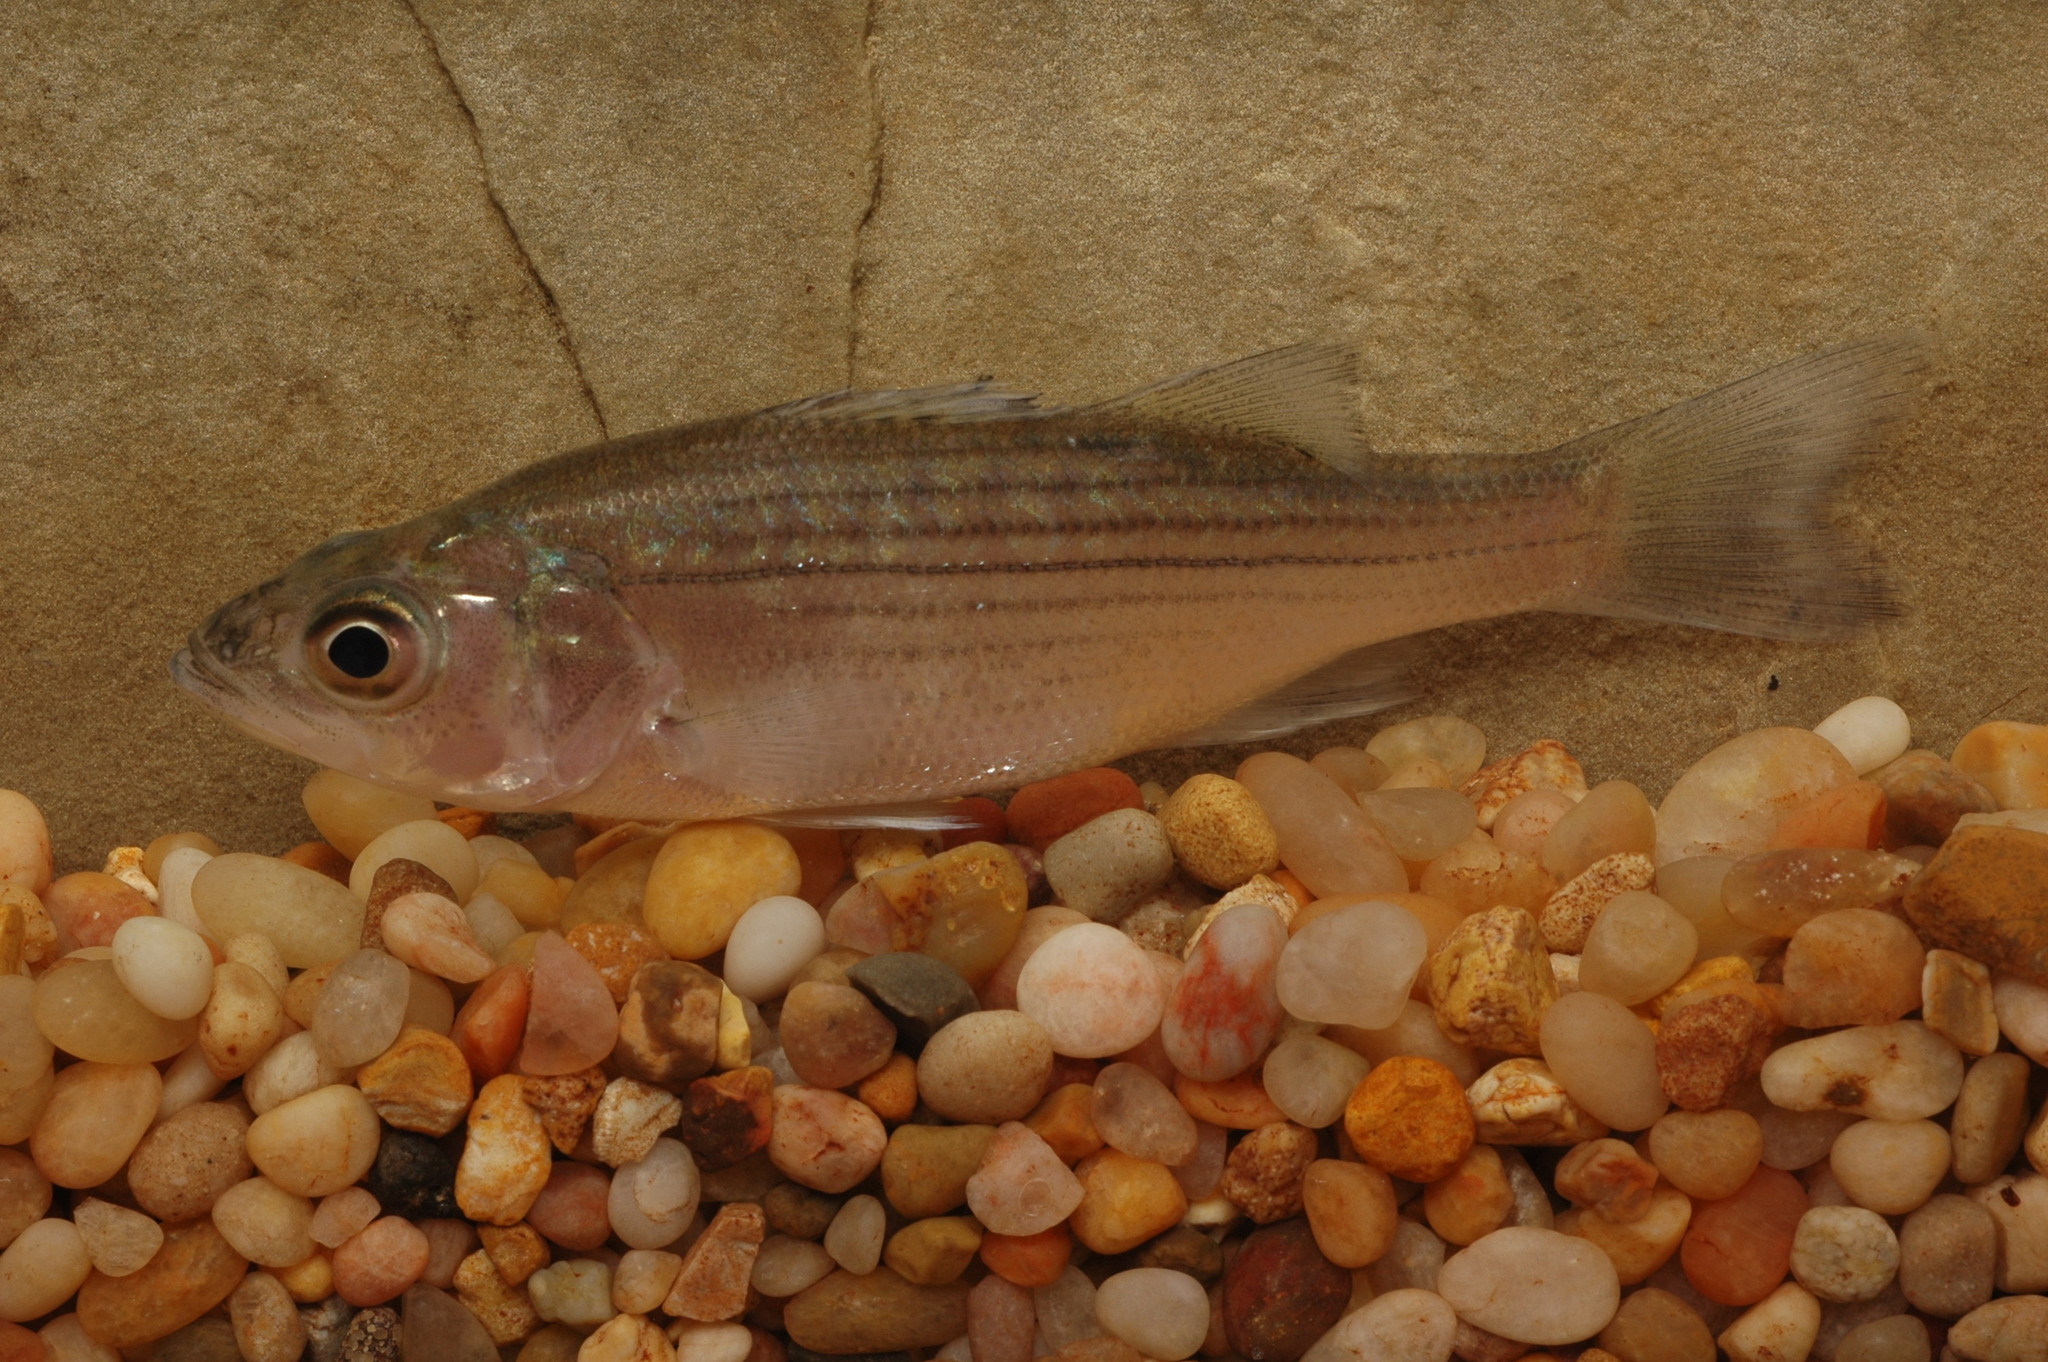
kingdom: Animalia
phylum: Chordata
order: Perciformes
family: Moronidae
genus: Morone
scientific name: Morone saxatilis
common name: Striped bass
